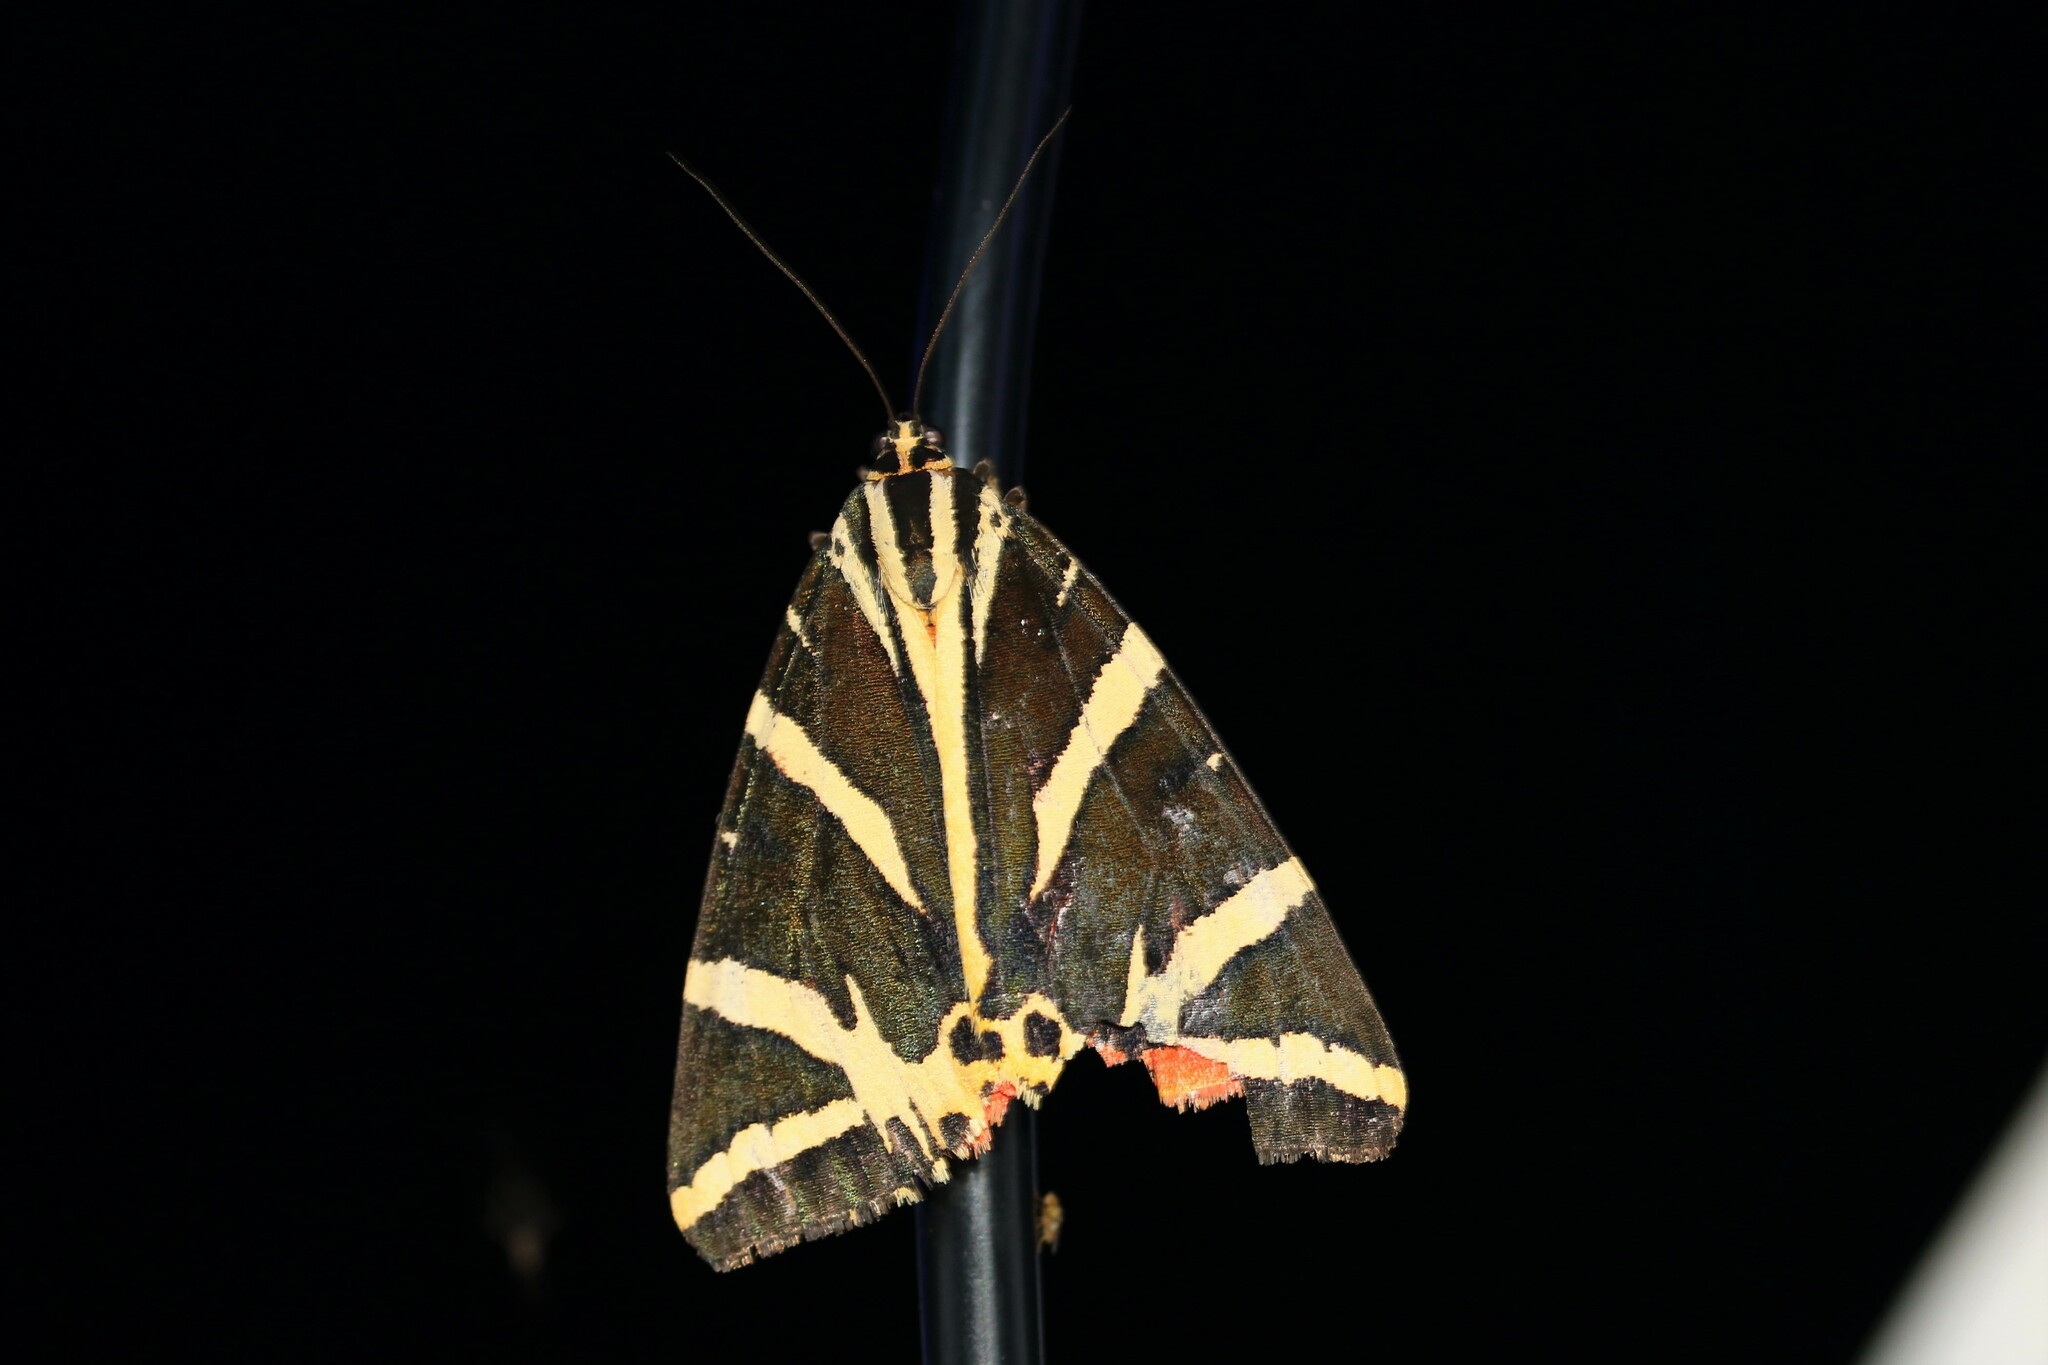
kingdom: Animalia
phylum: Arthropoda
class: Insecta
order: Lepidoptera
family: Erebidae
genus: Euplagia
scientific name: Euplagia quadripunctaria
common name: Jersey tiger
